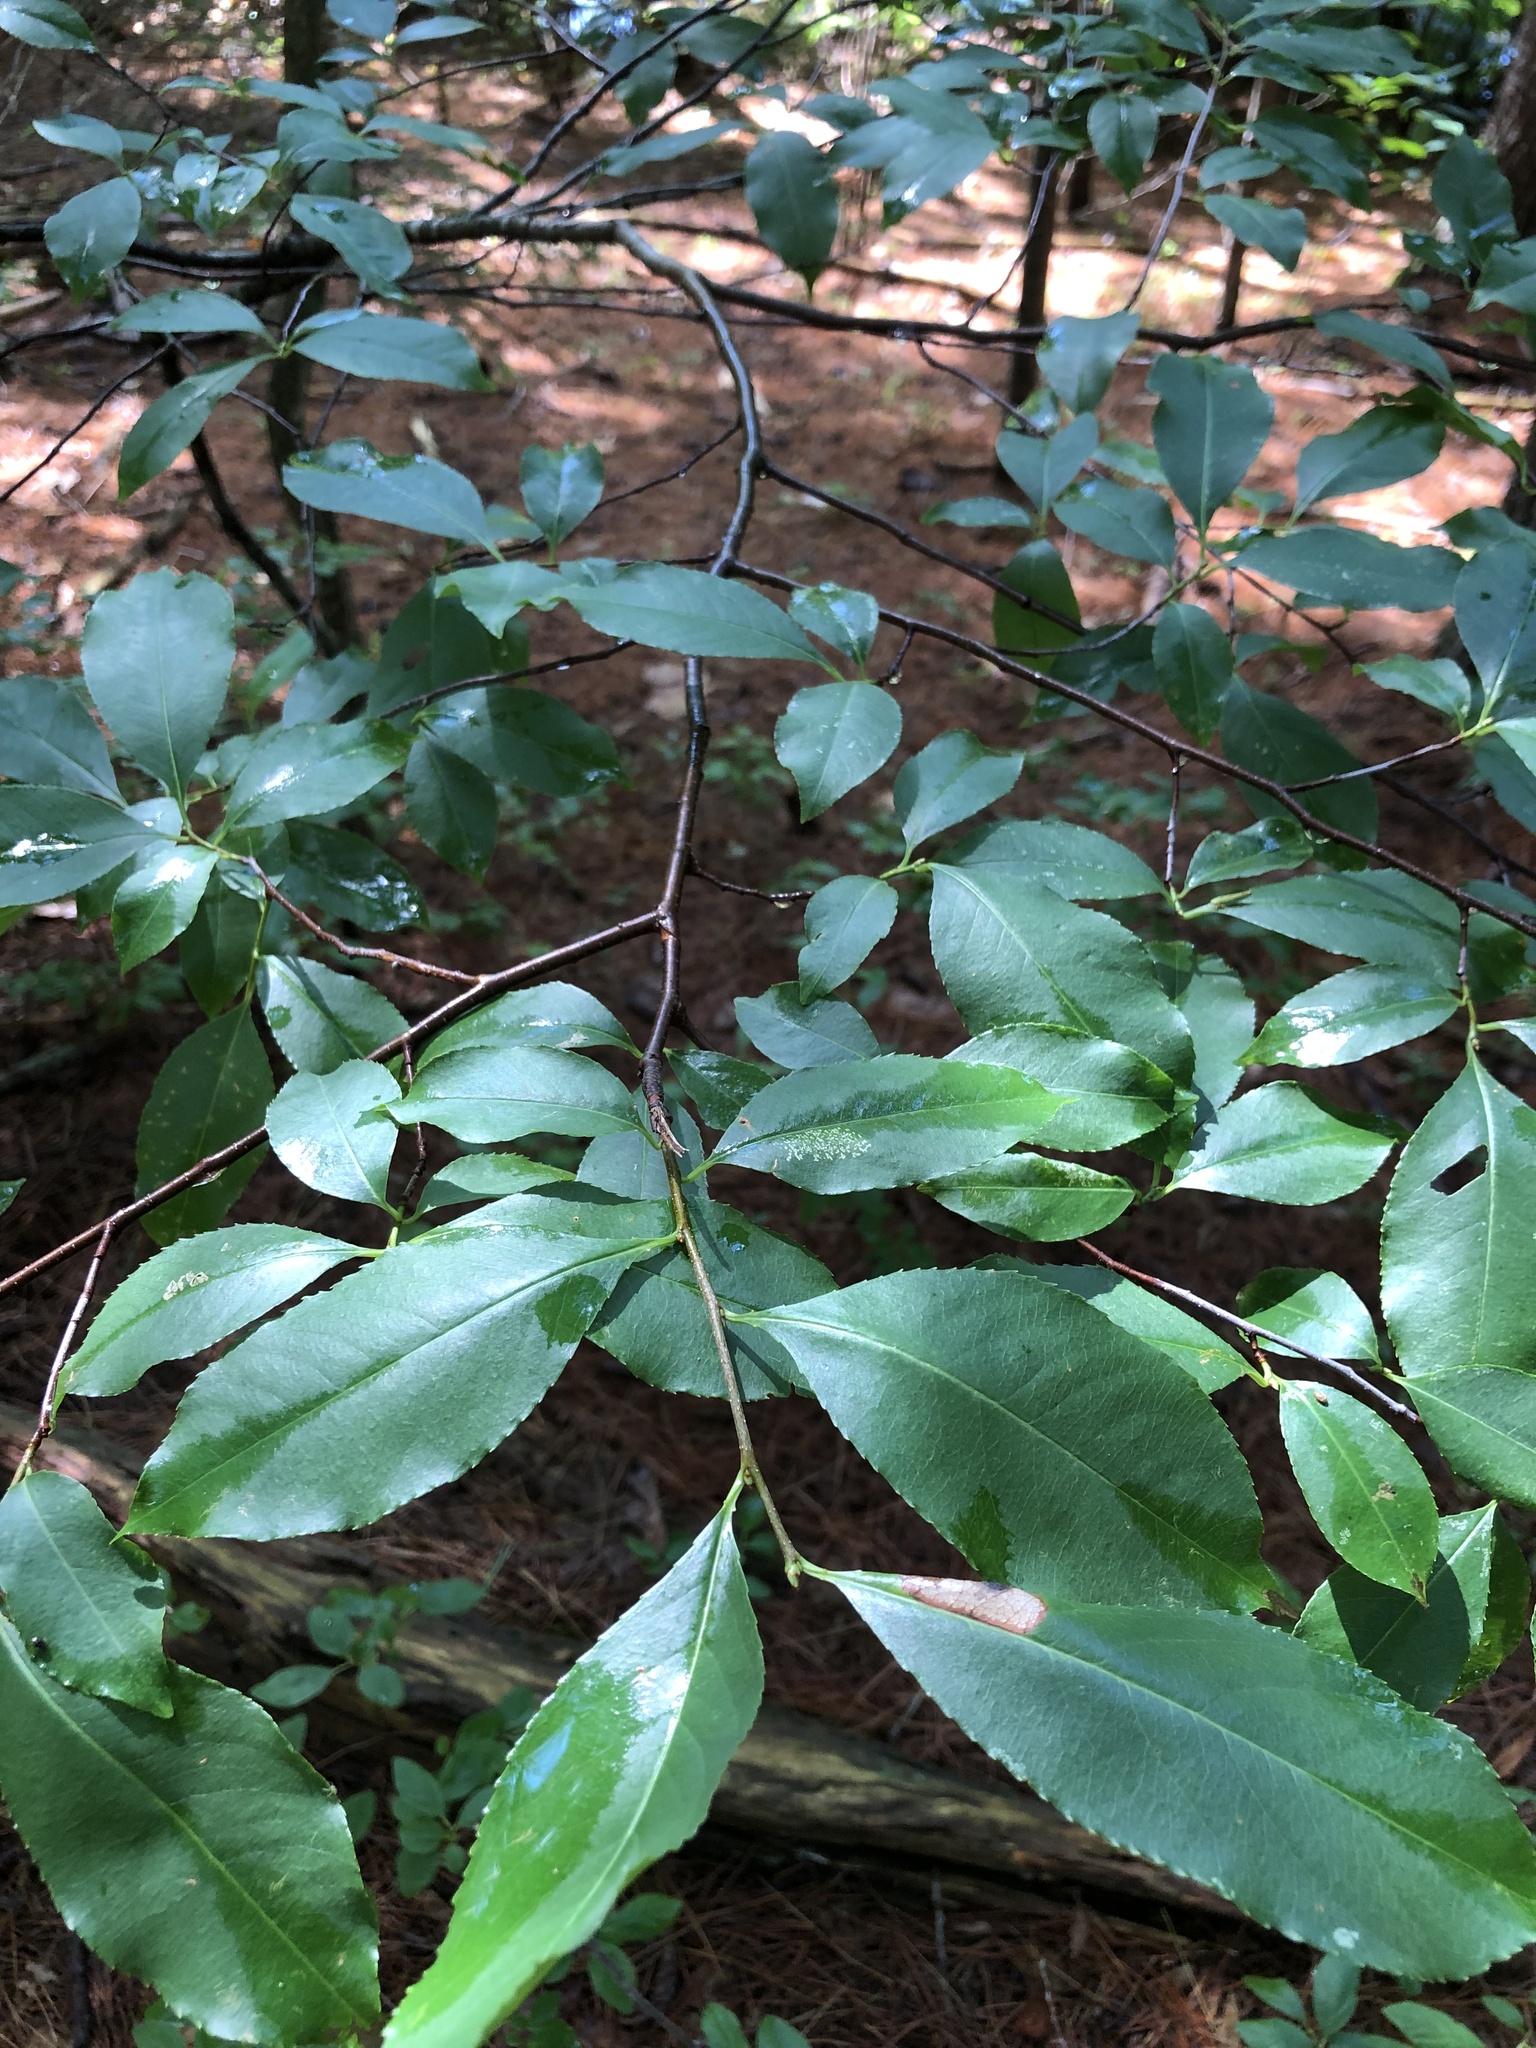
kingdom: Plantae
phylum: Tracheophyta
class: Magnoliopsida
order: Rosales
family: Rosaceae
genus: Prunus
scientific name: Prunus serotina
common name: Black cherry
